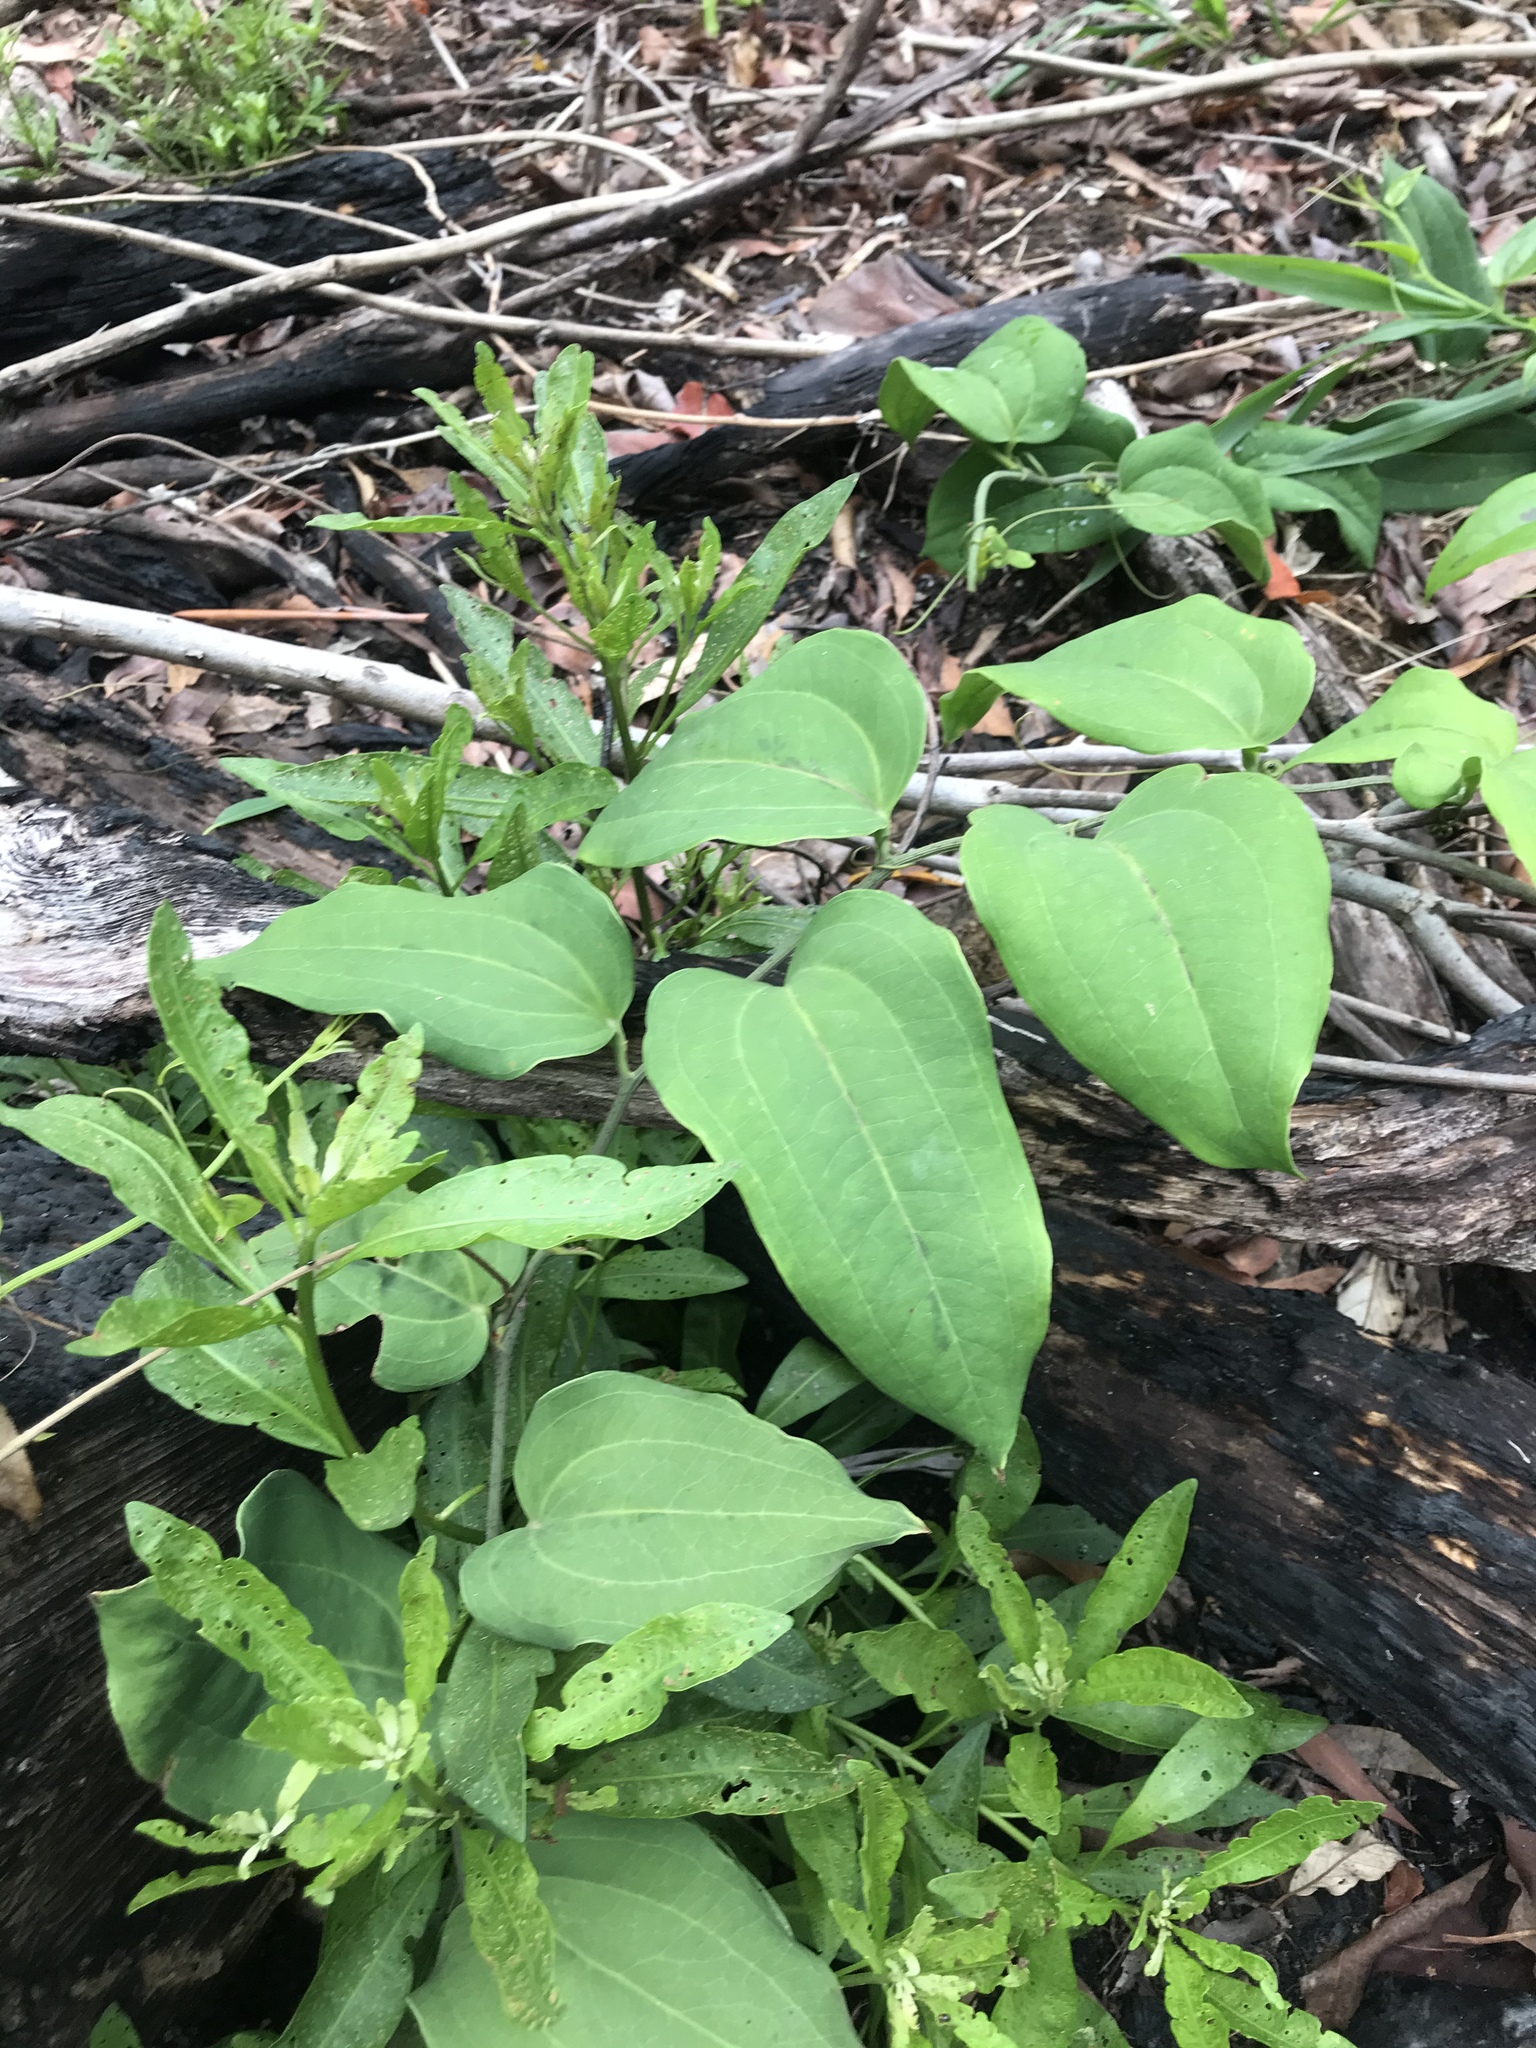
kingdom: Plantae
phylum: Tracheophyta
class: Liliopsida
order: Liliales
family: Smilacaceae
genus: Smilax
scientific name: Smilax australis
